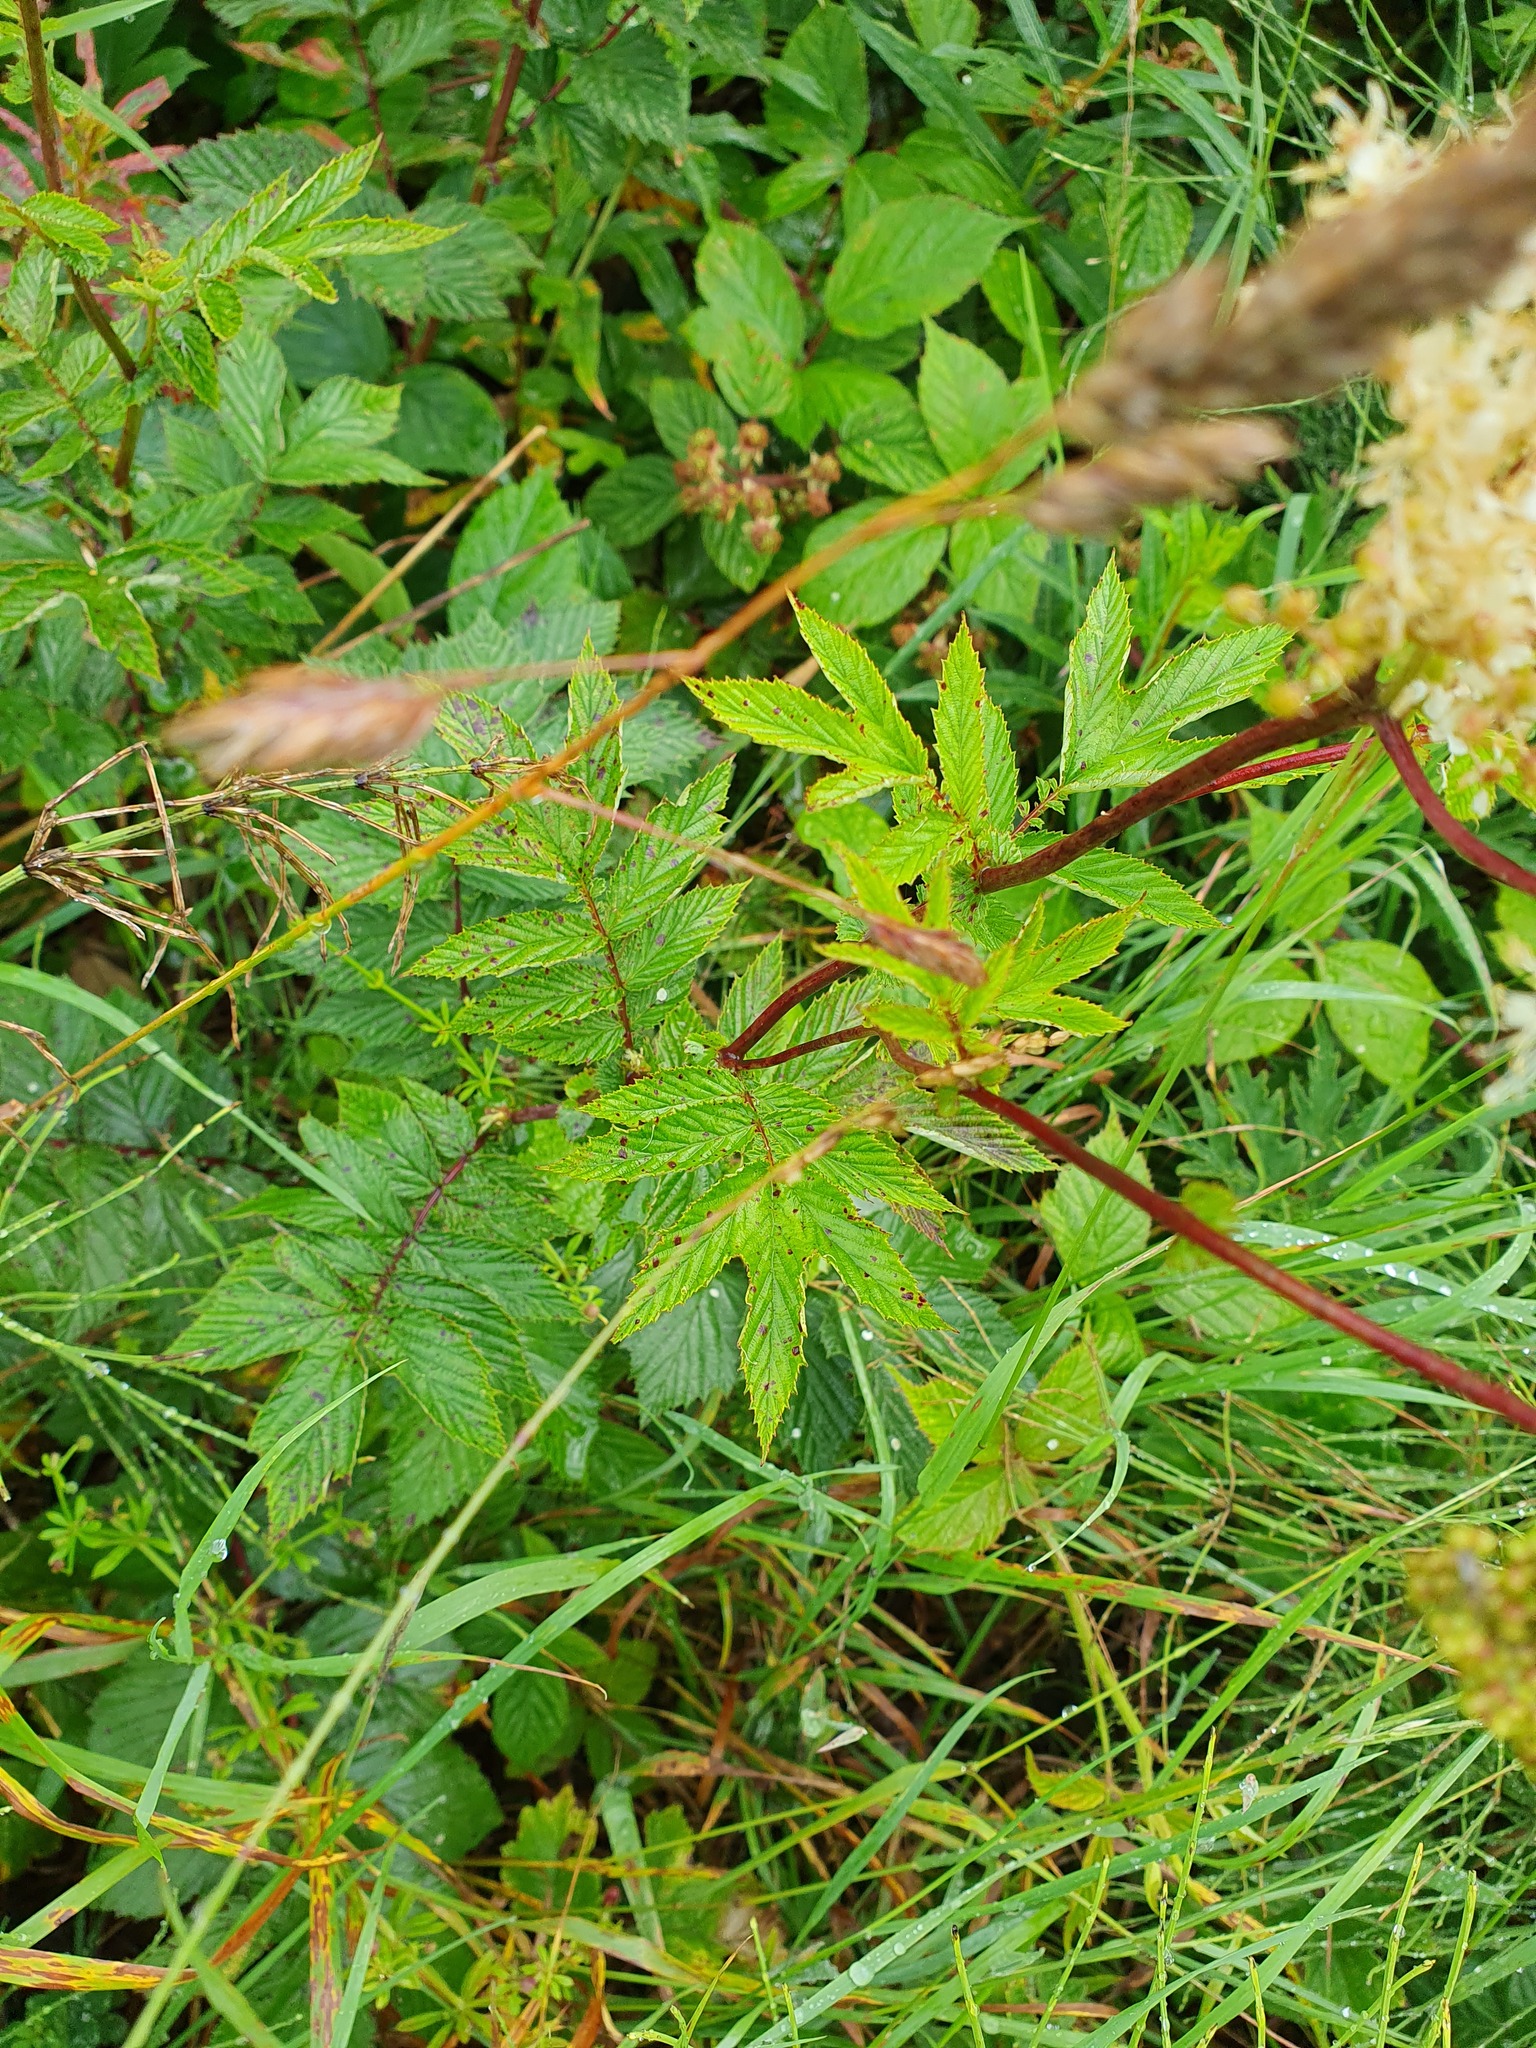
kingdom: Plantae
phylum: Tracheophyta
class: Magnoliopsida
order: Rosales
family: Rosaceae
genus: Filipendula
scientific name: Filipendula ulmaria
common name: Meadowsweet
